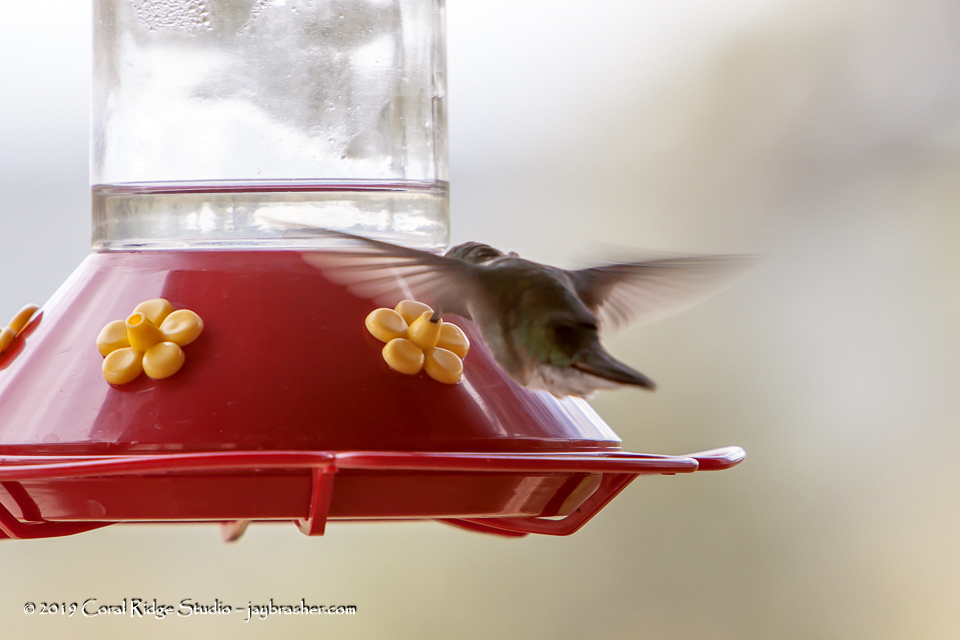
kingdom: Animalia
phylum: Chordata
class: Aves
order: Apodiformes
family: Trochilidae
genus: Selasphorus
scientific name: Selasphorus platycercus
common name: Broad-tailed hummingbird
